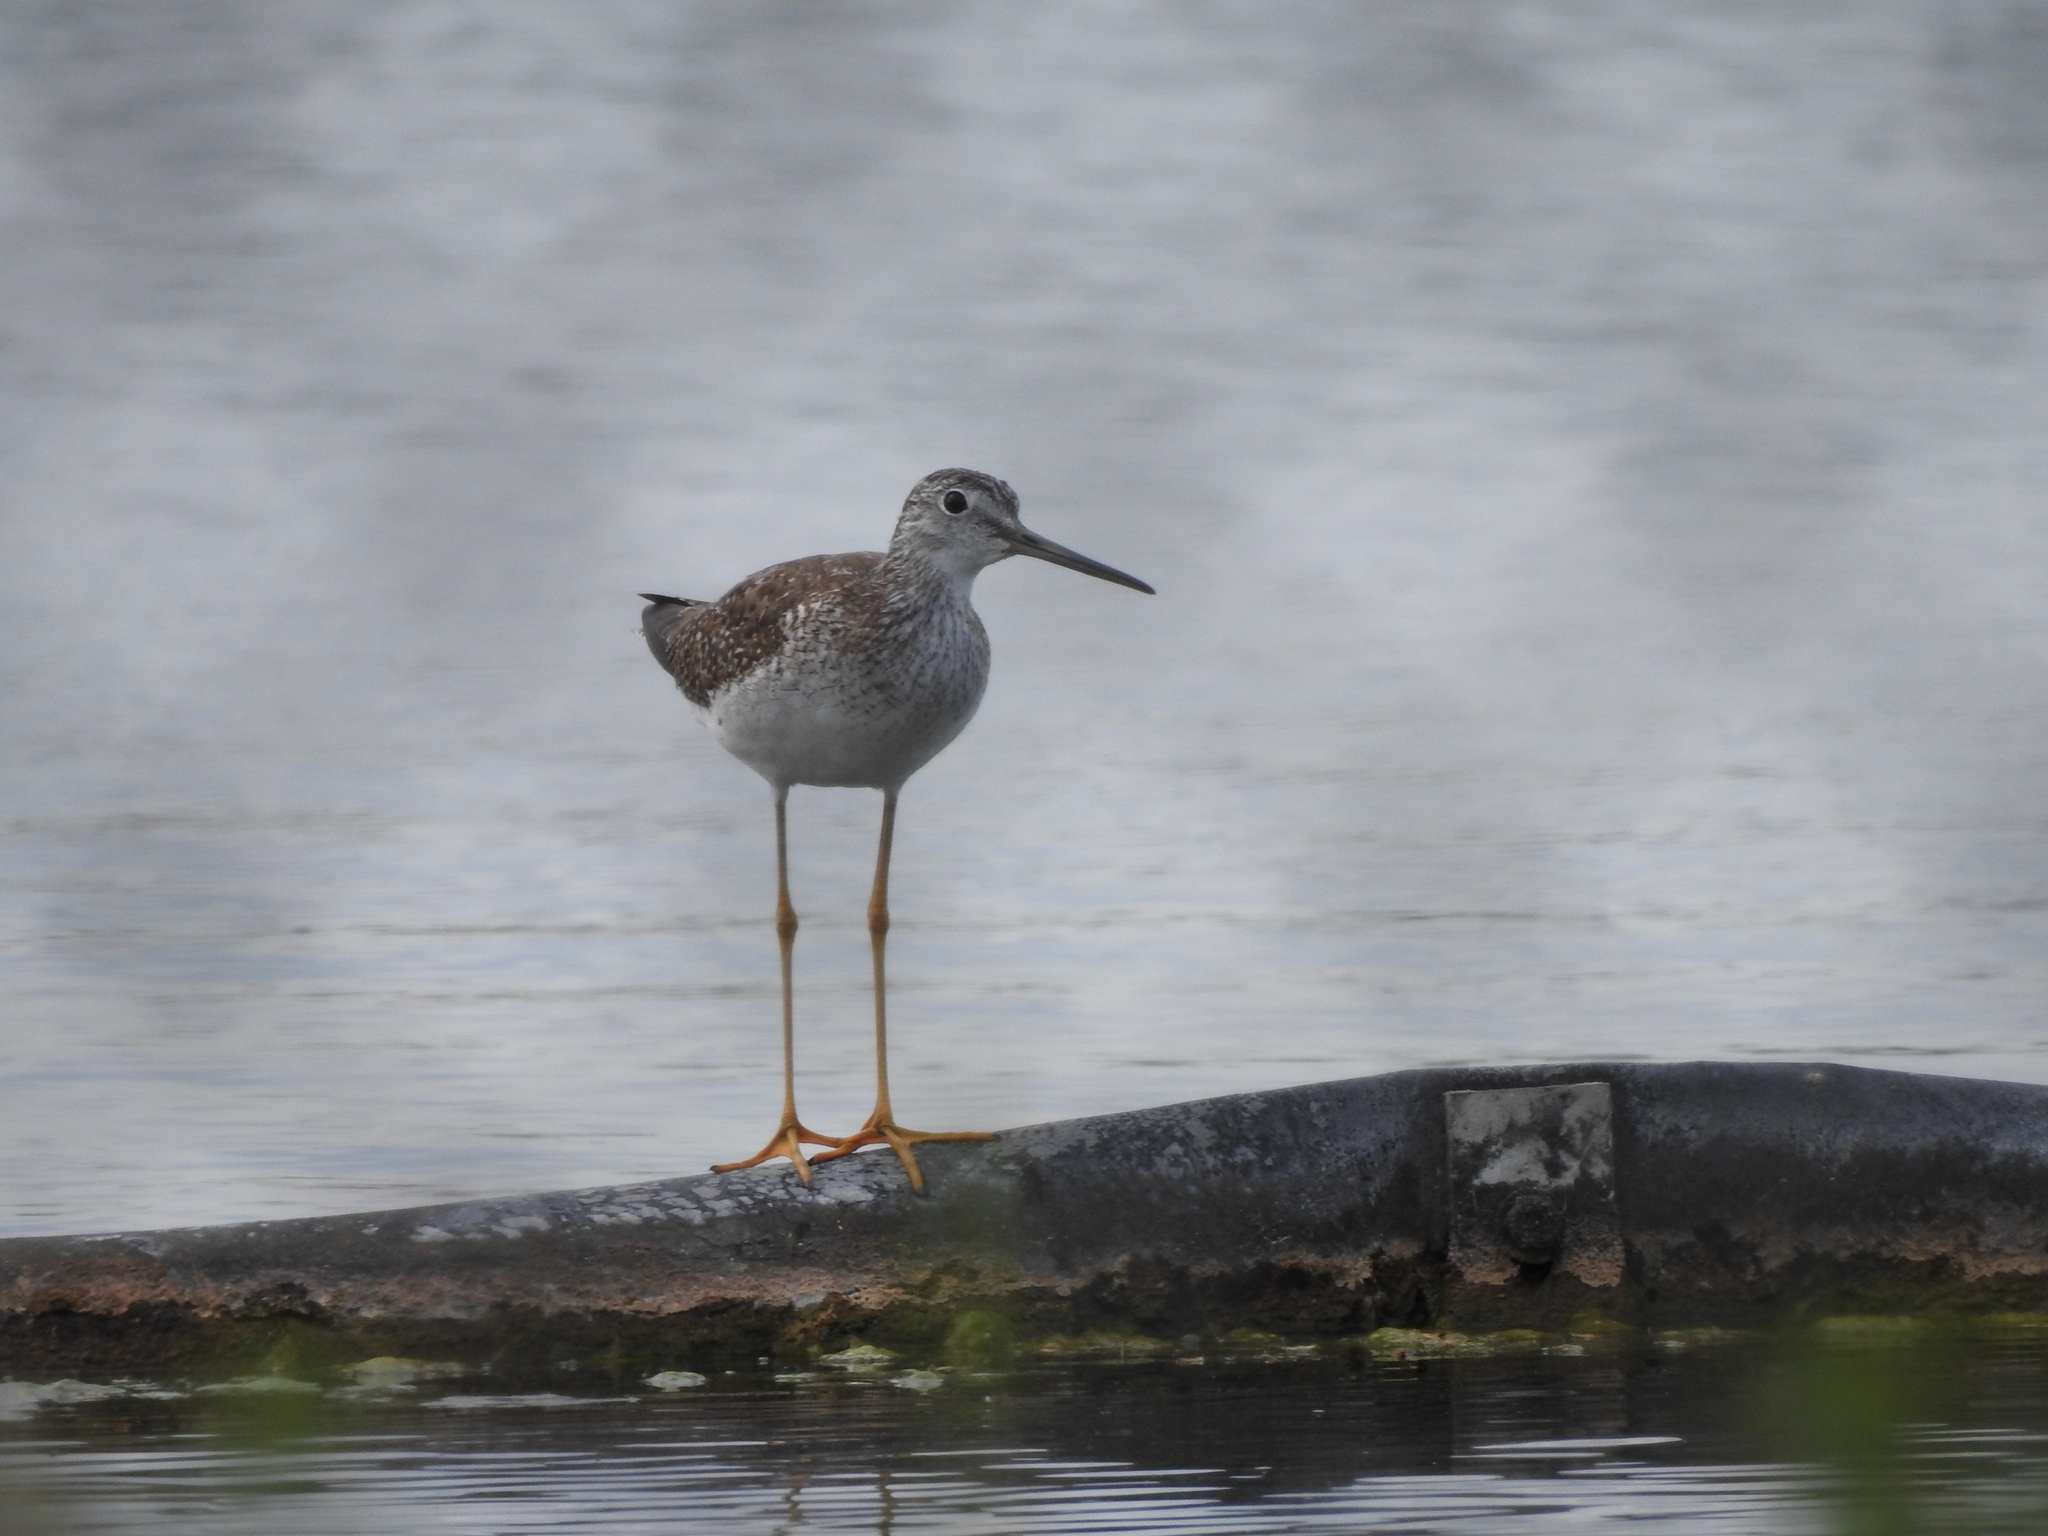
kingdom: Animalia
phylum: Chordata
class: Aves
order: Charadriiformes
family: Scolopacidae
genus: Tringa
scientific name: Tringa melanoleuca
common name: Greater yellowlegs
